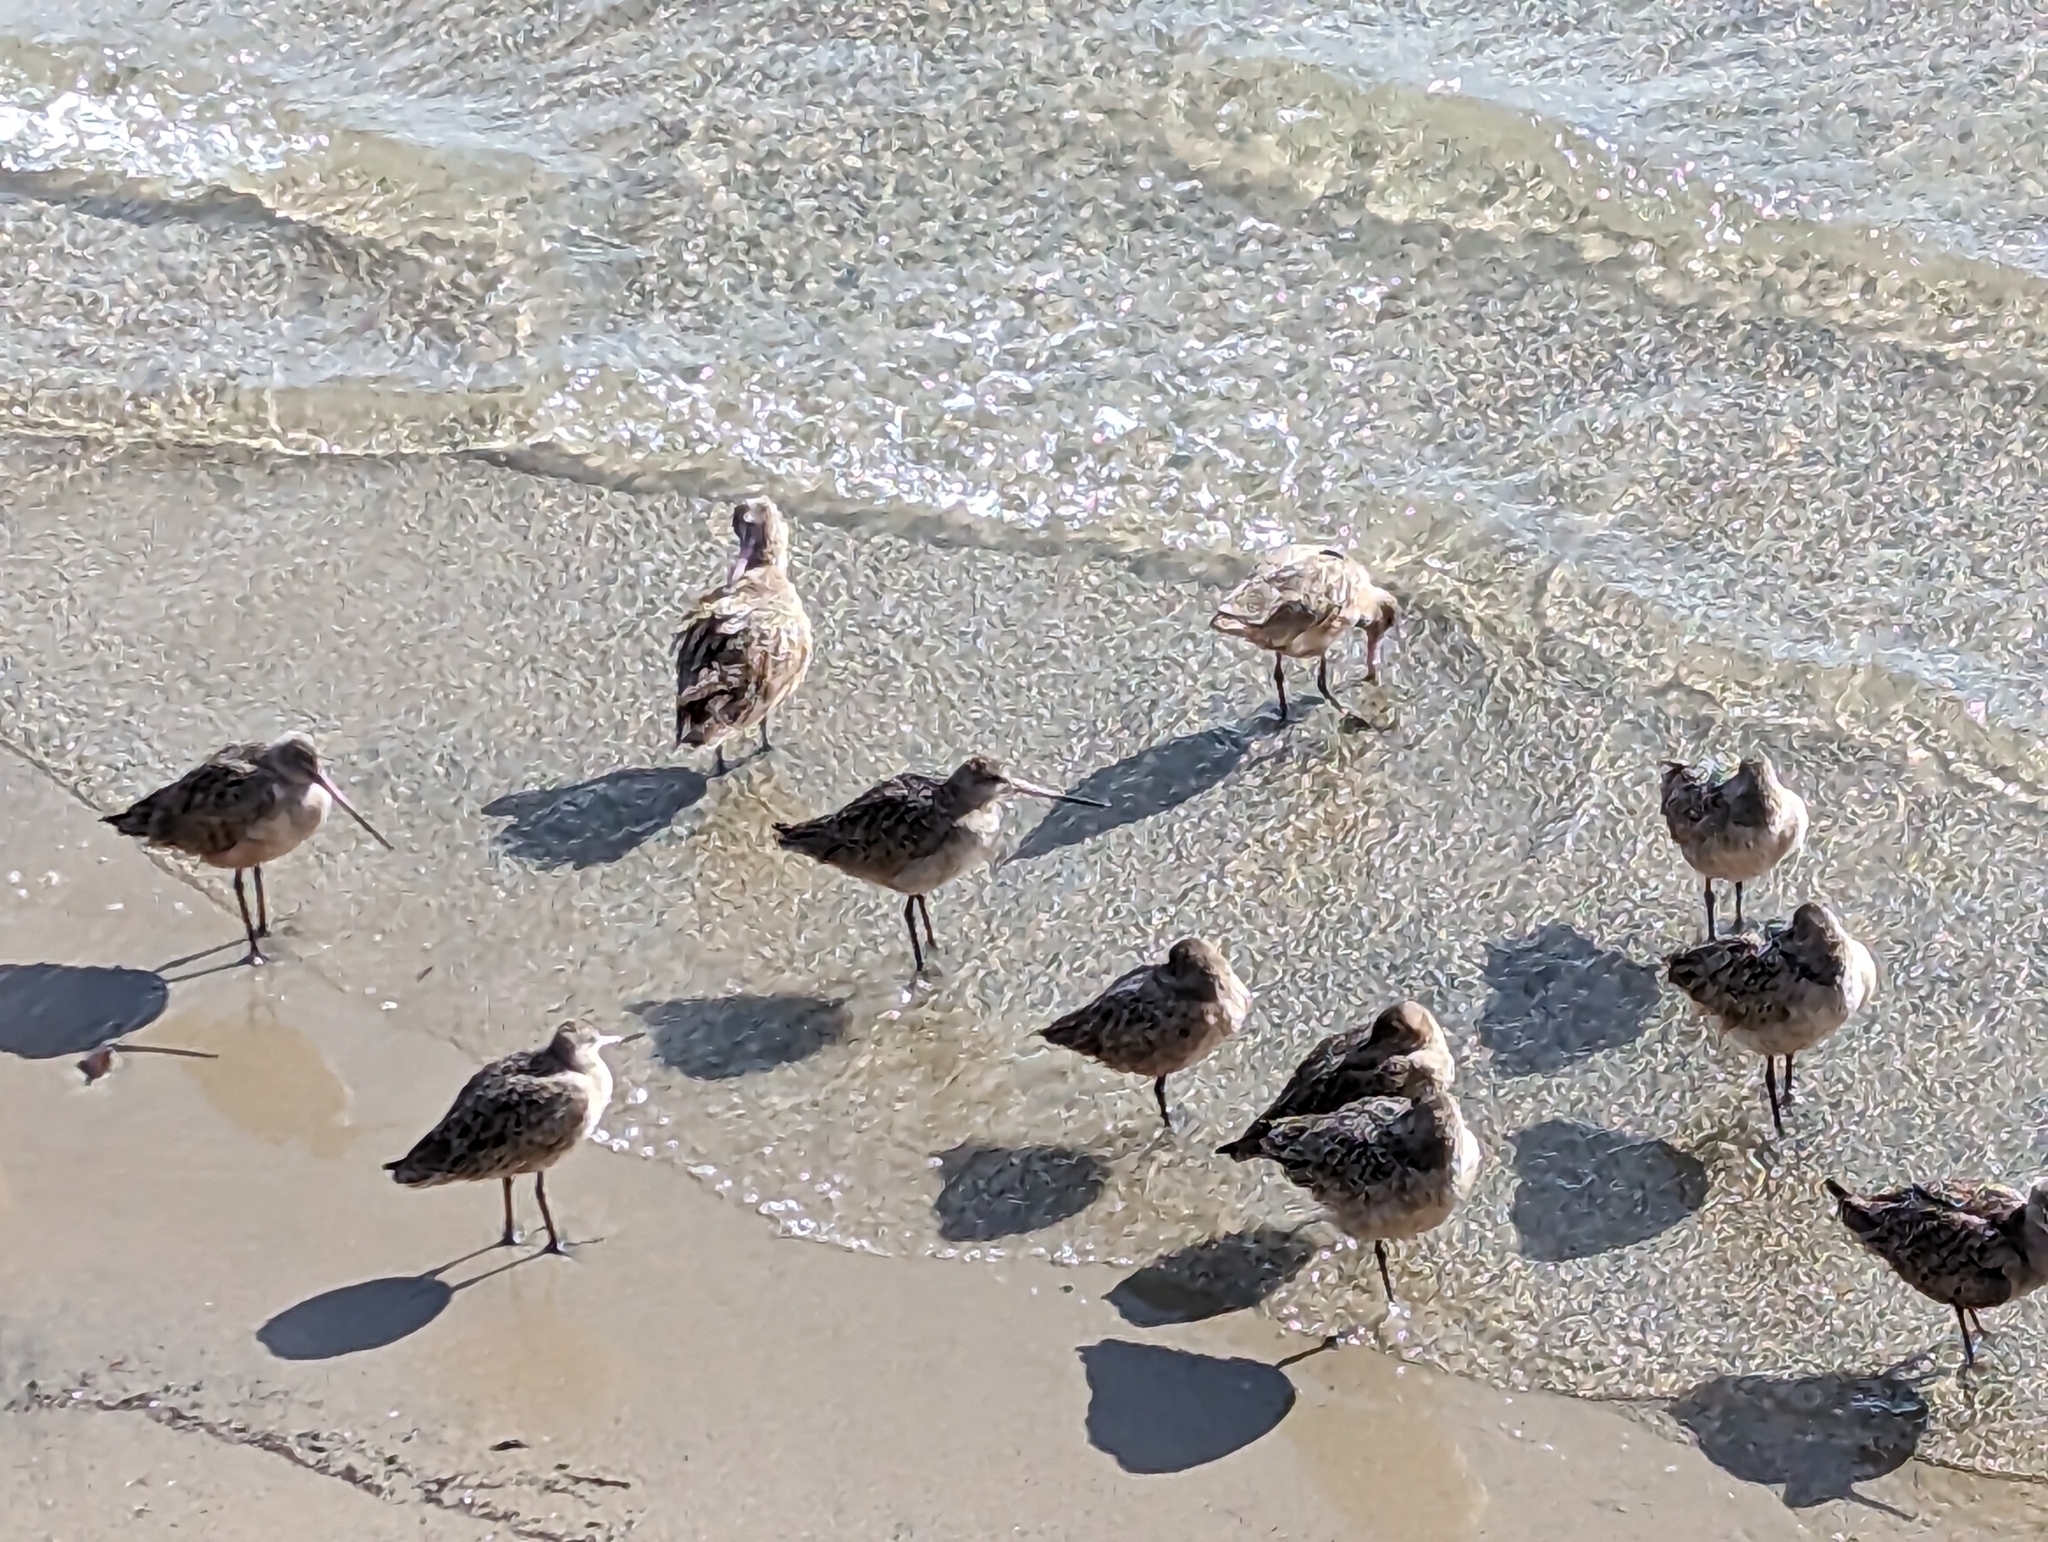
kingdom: Animalia
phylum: Chordata
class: Aves
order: Charadriiformes
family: Scolopacidae
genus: Limosa
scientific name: Limosa fedoa
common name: Marbled godwit
